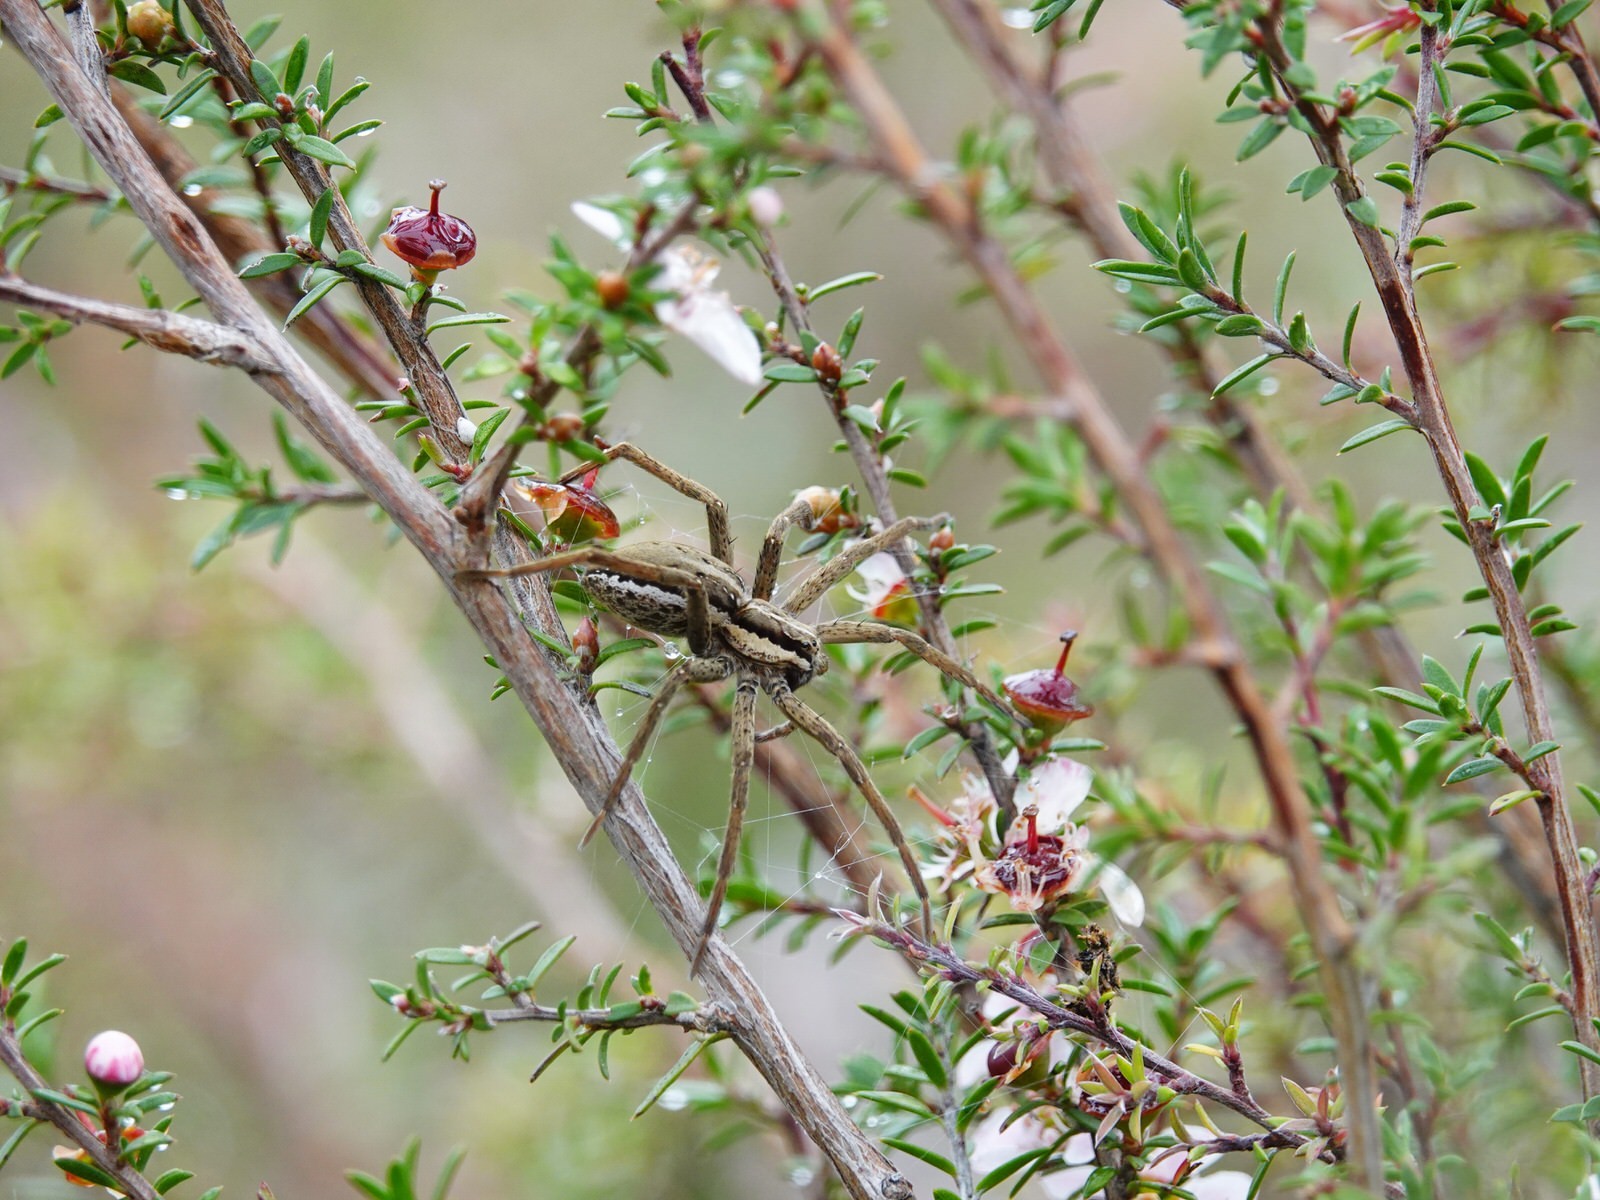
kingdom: Animalia
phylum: Arthropoda
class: Arachnida
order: Araneae
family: Pisauridae
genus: Dolomedes
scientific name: Dolomedes minor
